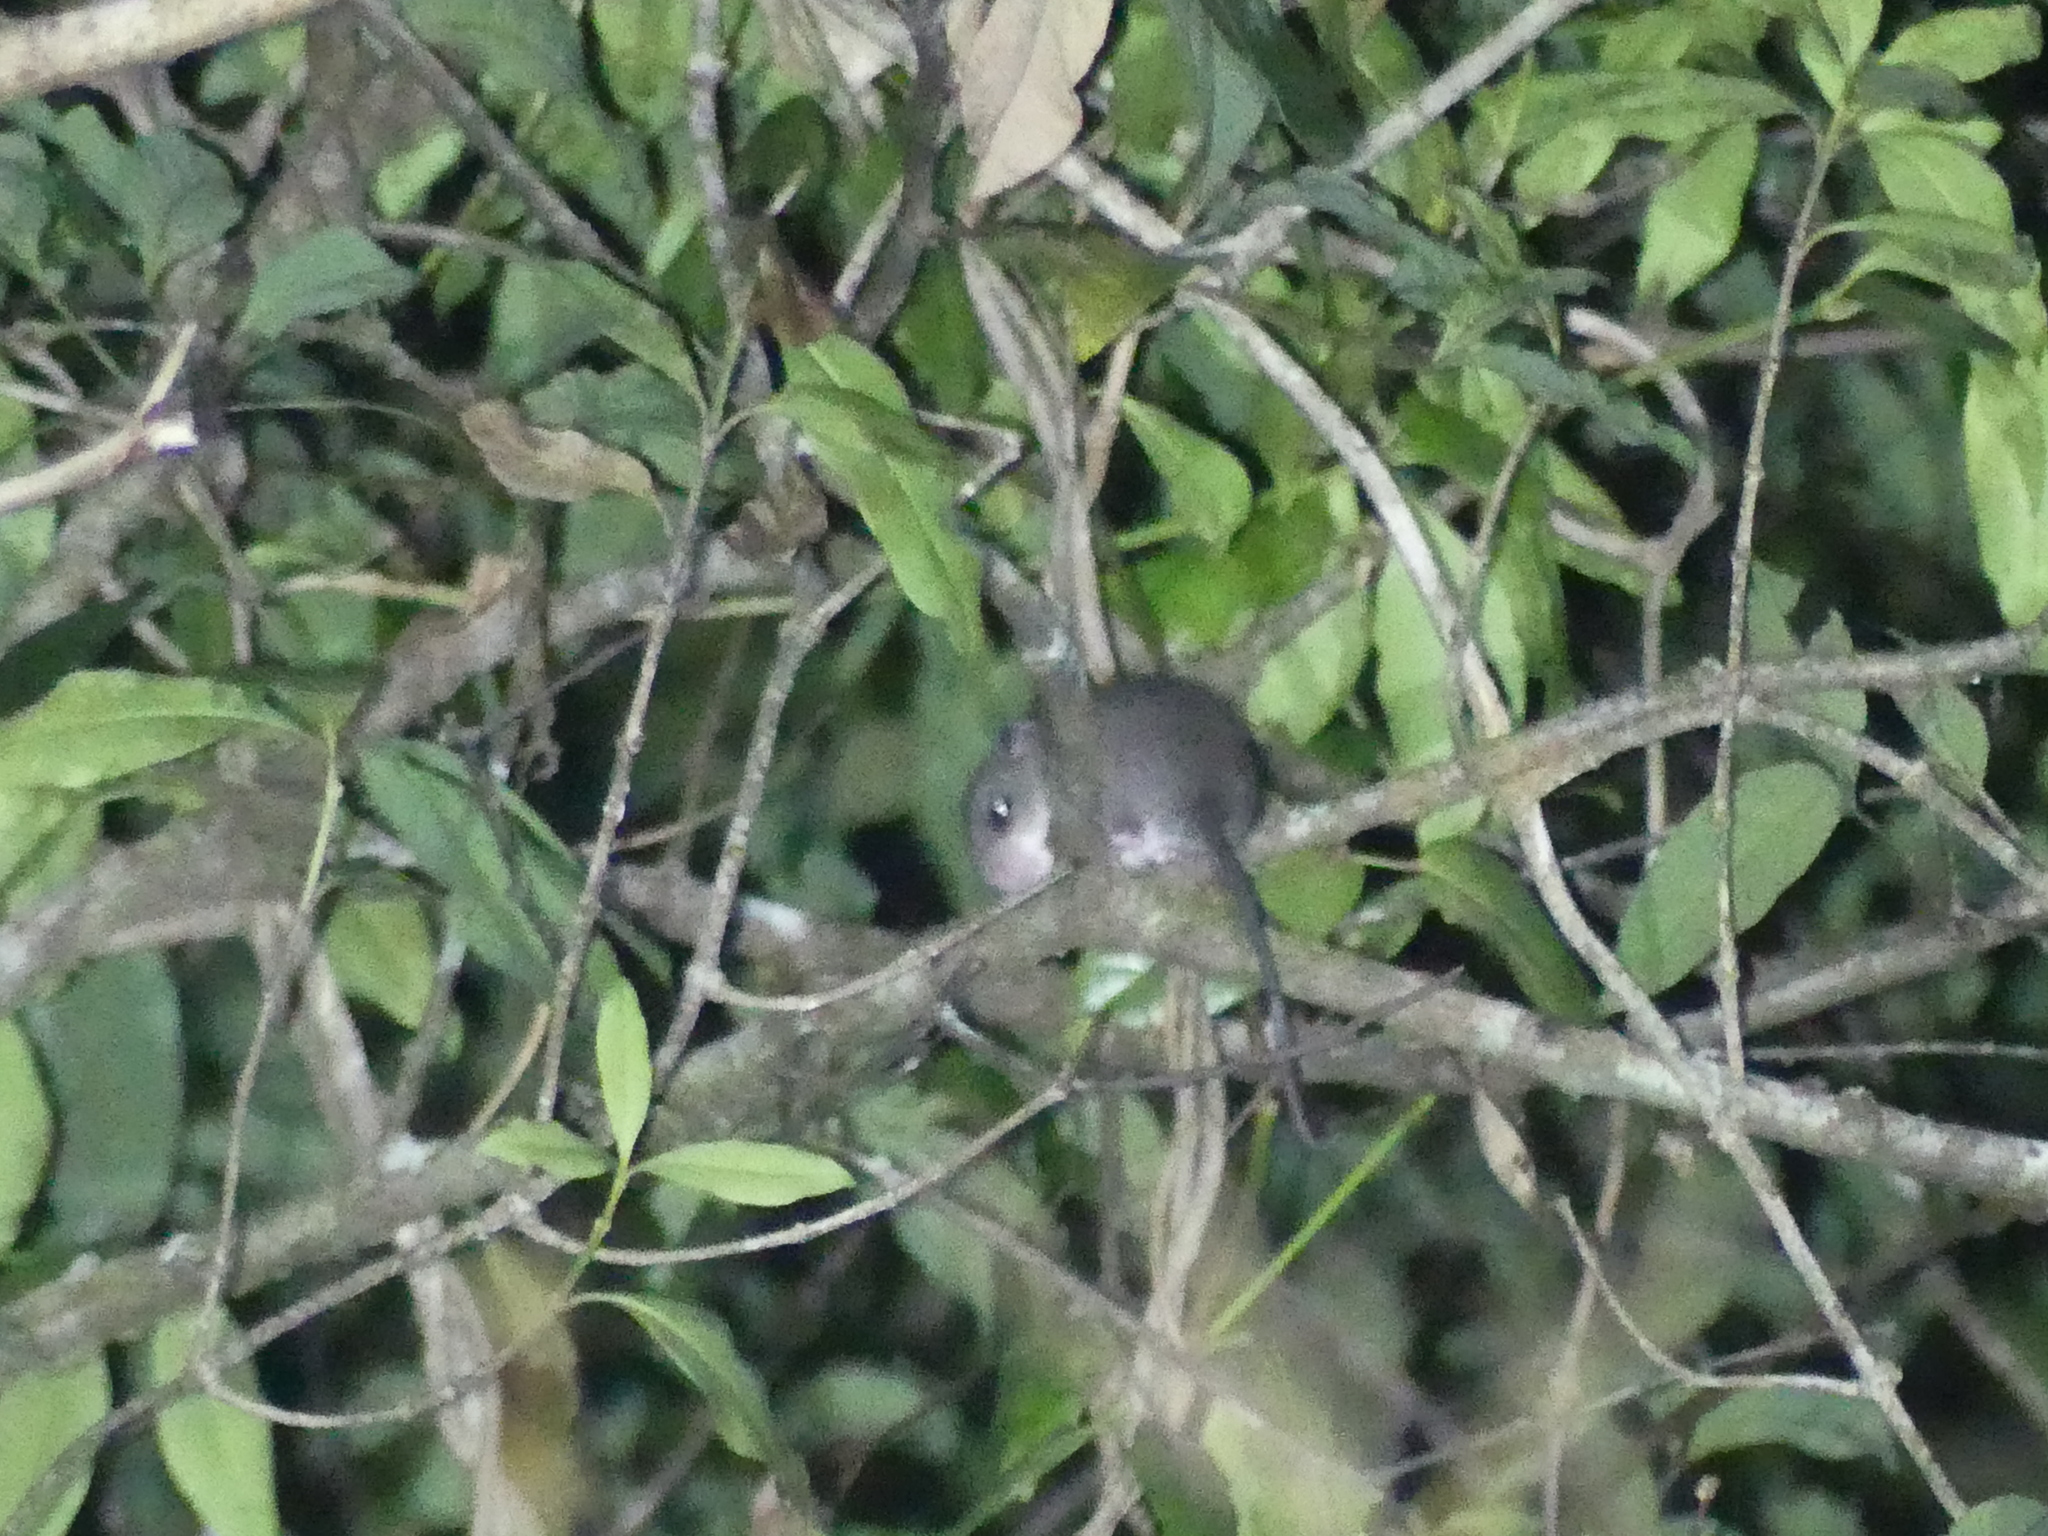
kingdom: Animalia
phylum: Chordata
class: Mammalia
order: Rodentia
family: Muridae
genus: Pogonomys
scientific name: Pogonomys macrourus
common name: Chestnut pogonomys
